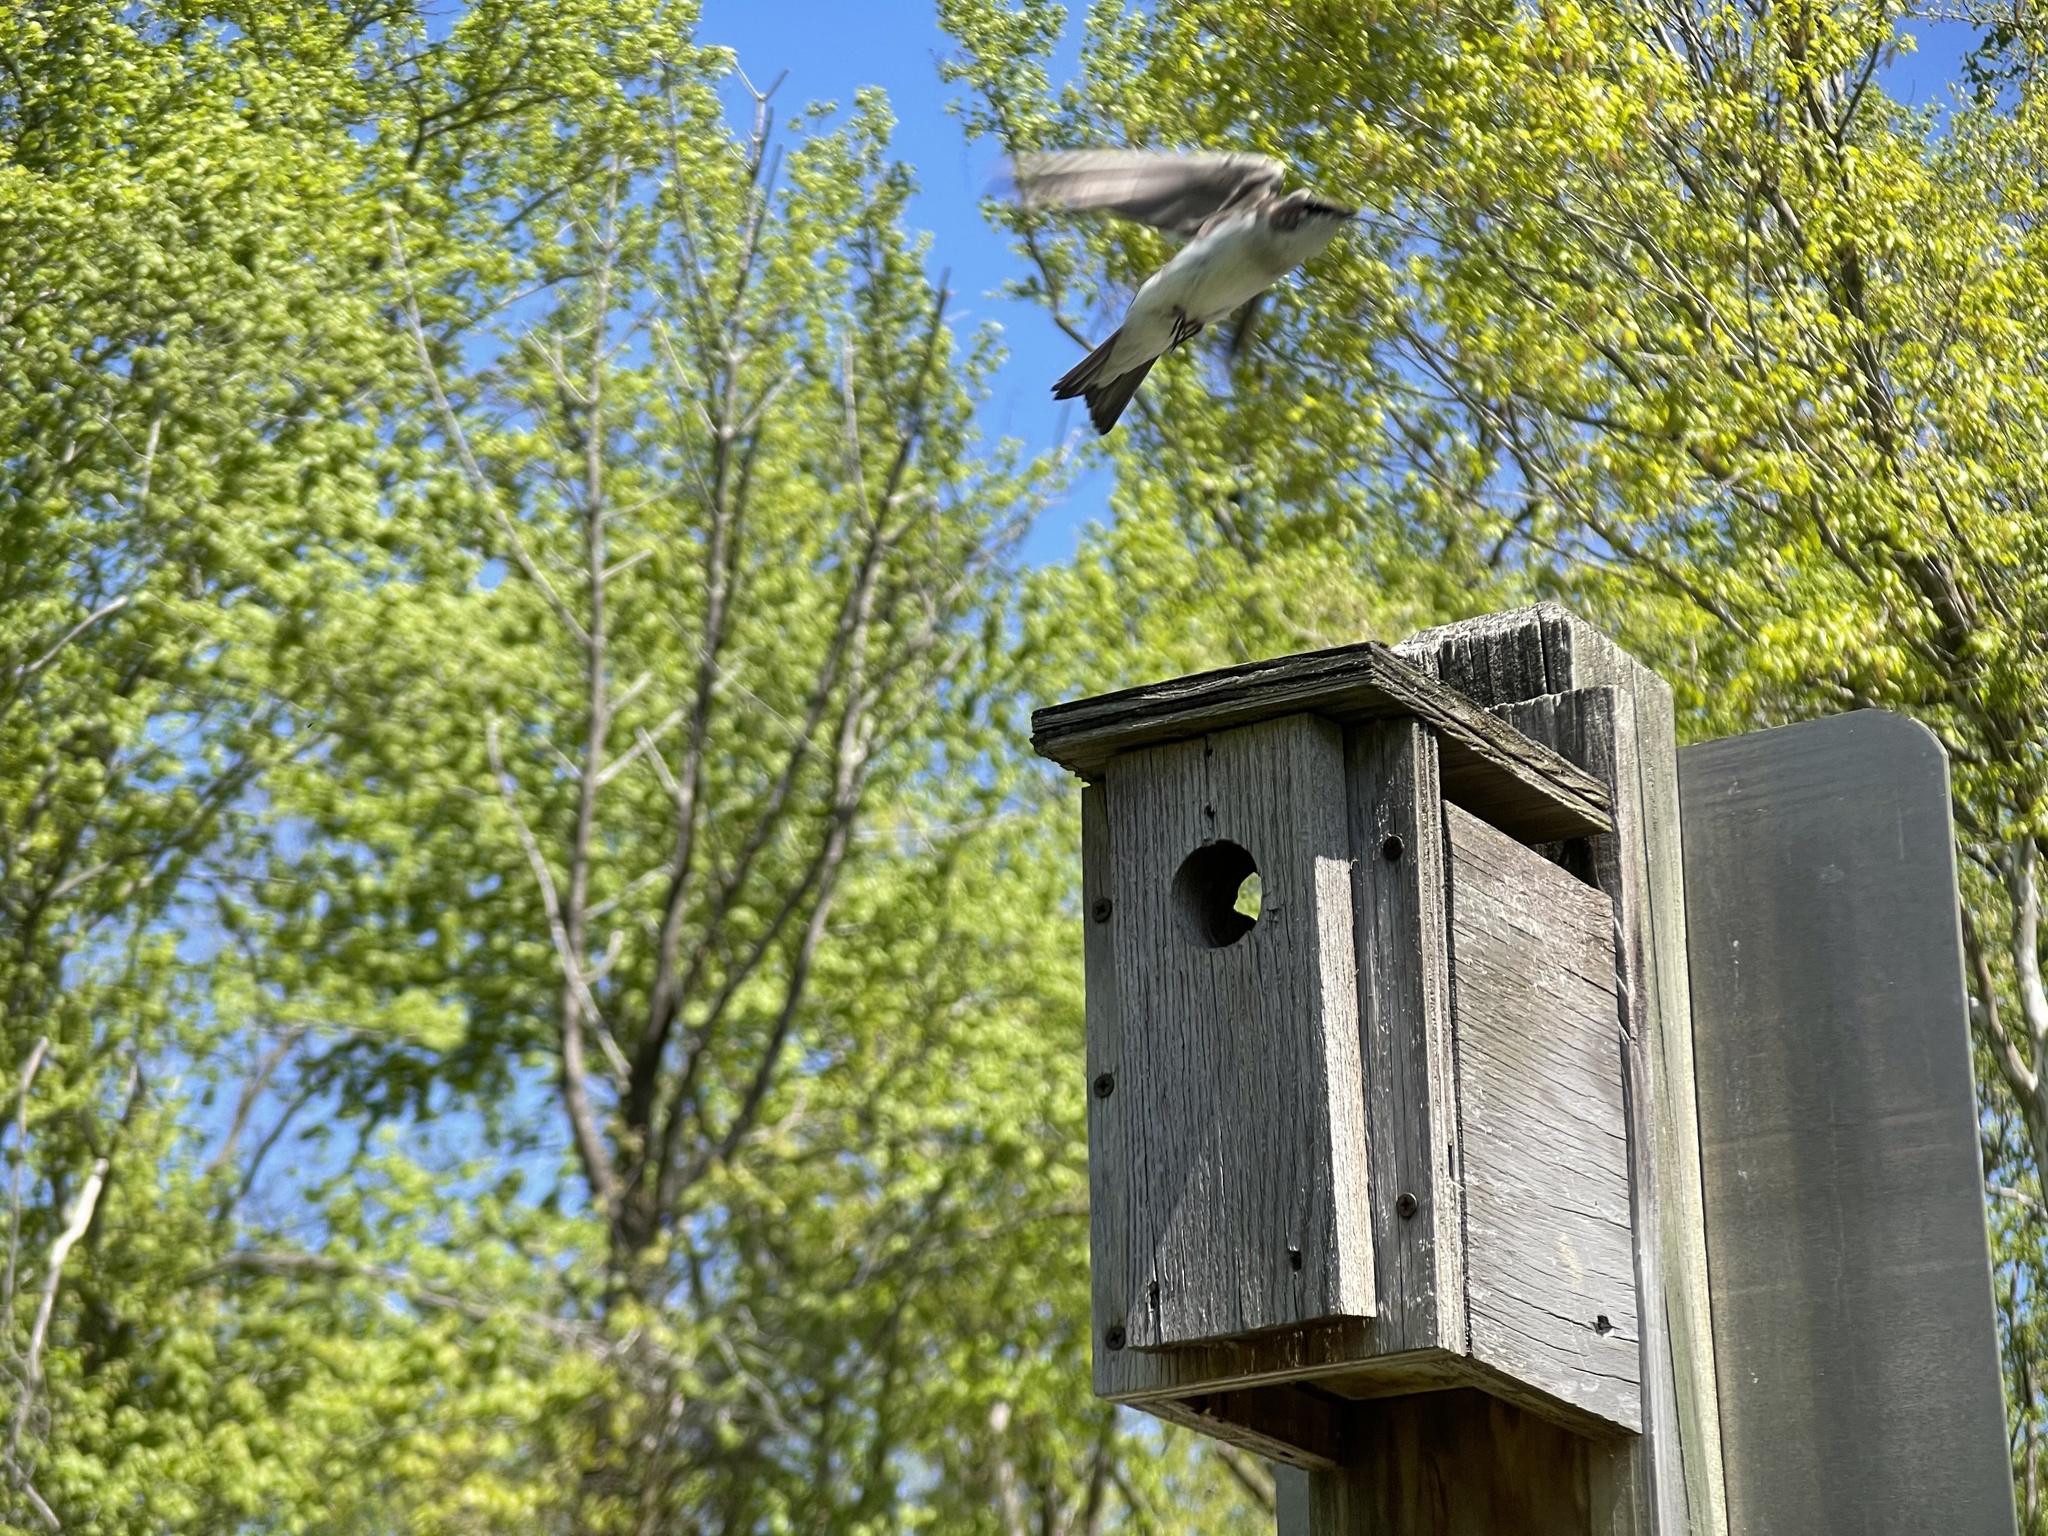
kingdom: Animalia
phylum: Chordata
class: Aves
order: Passeriformes
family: Hirundinidae
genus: Tachycineta
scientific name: Tachycineta bicolor
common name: Tree swallow
